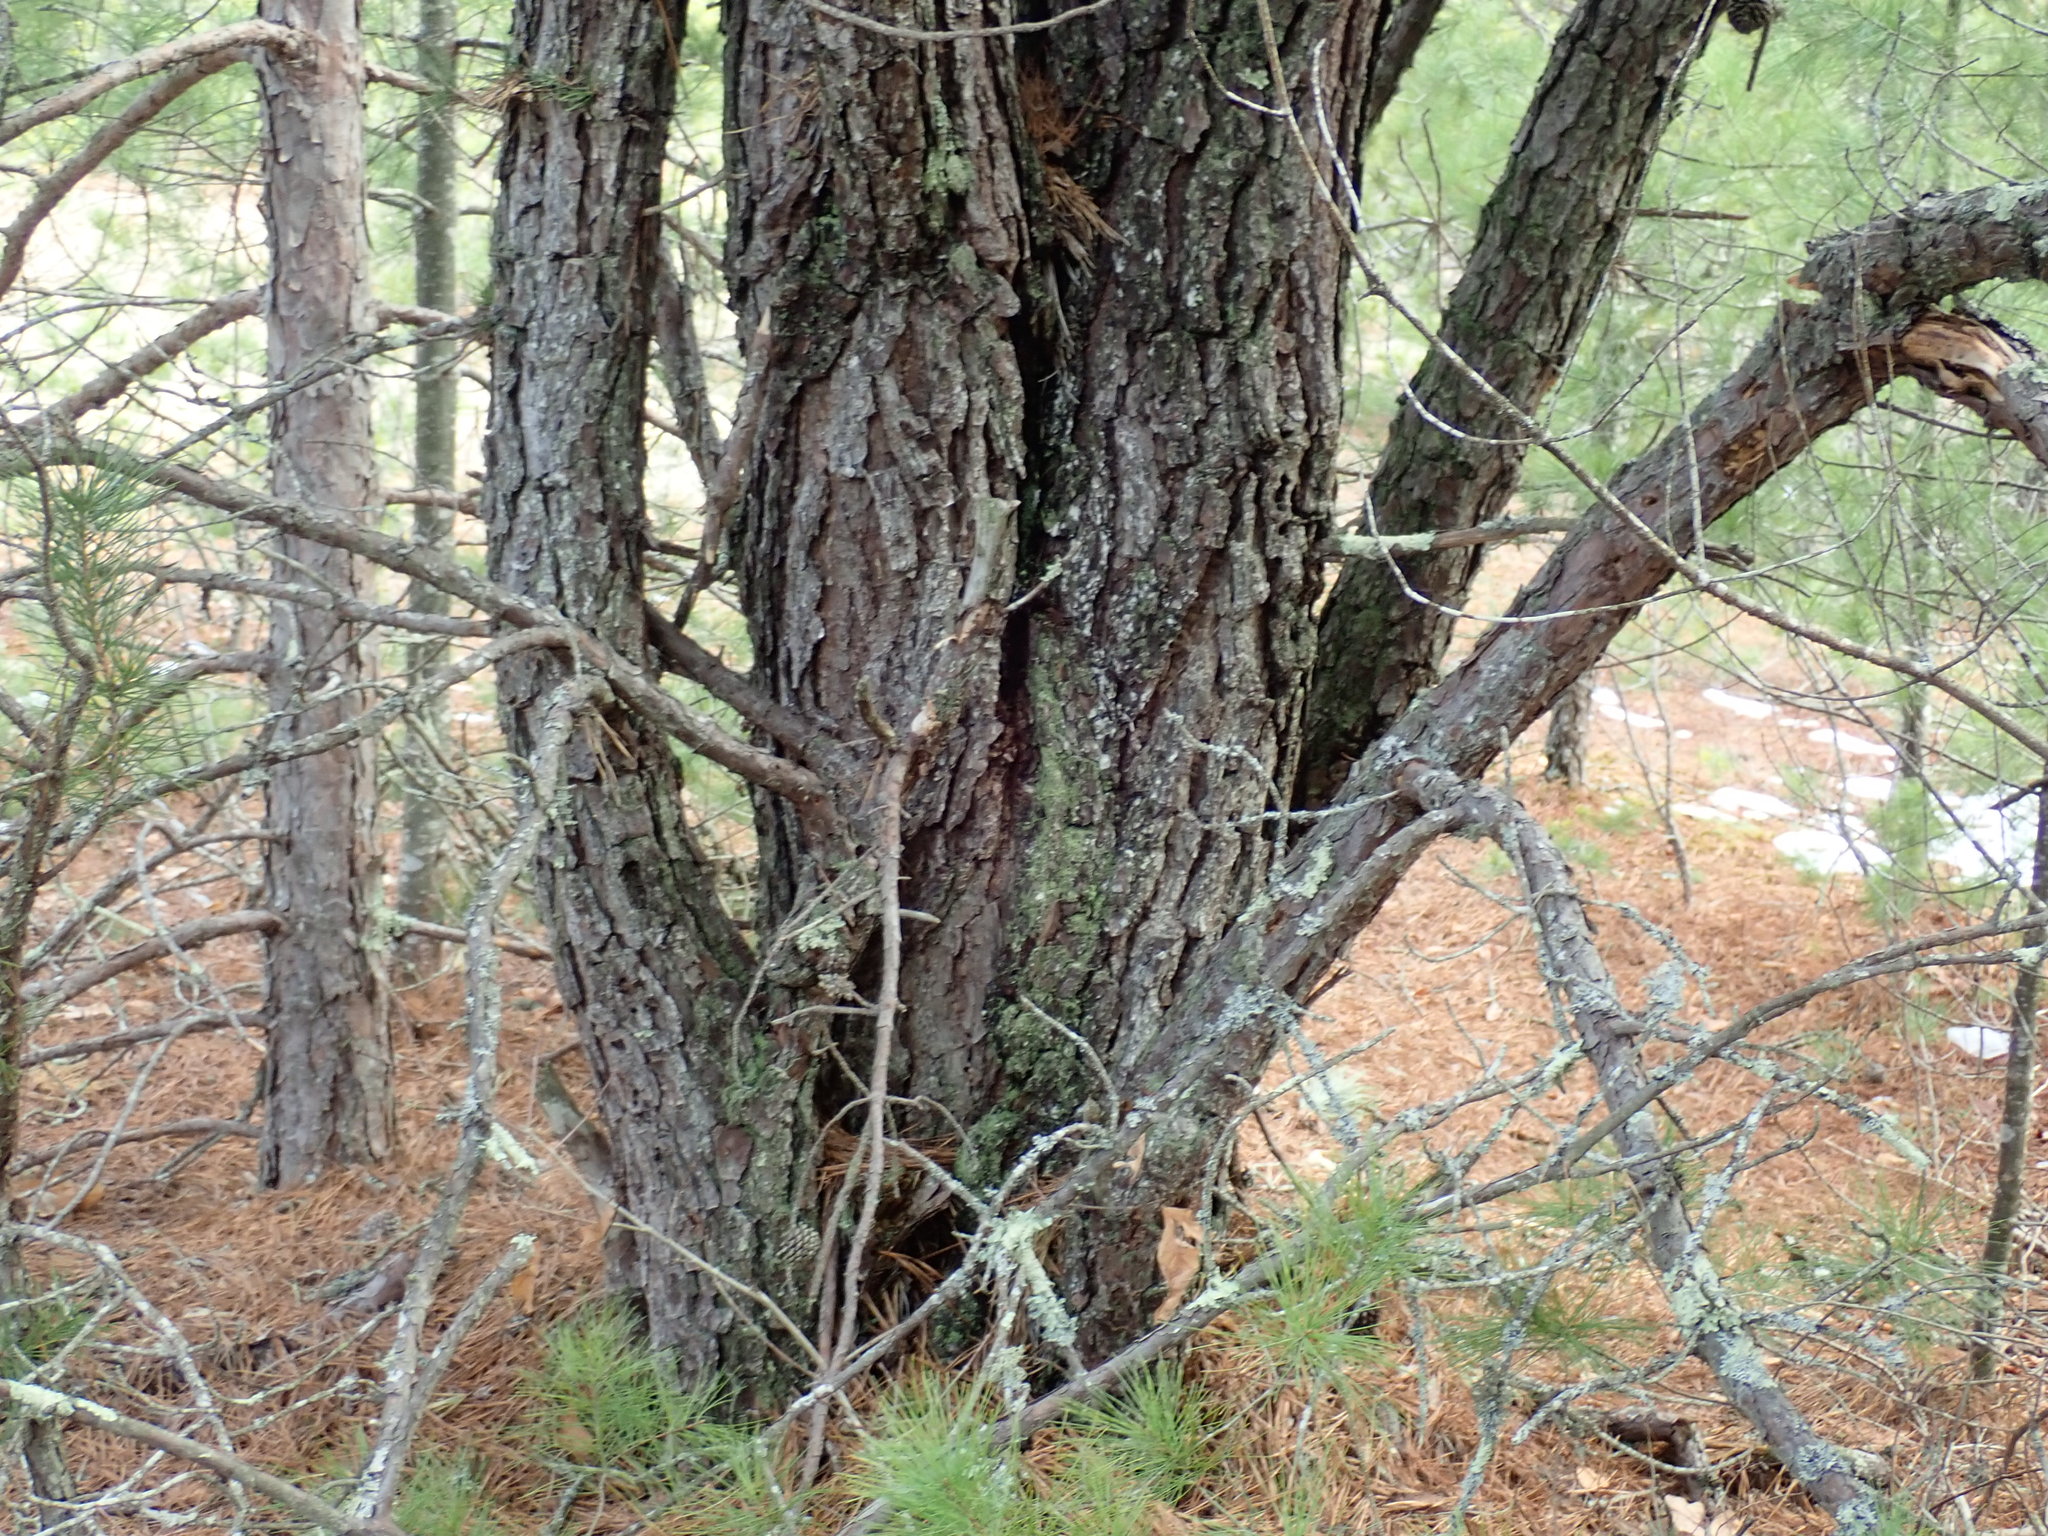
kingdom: Plantae
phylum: Tracheophyta
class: Pinopsida
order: Pinales
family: Pinaceae
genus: Pinus
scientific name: Pinus rigida
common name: Pitch pine
